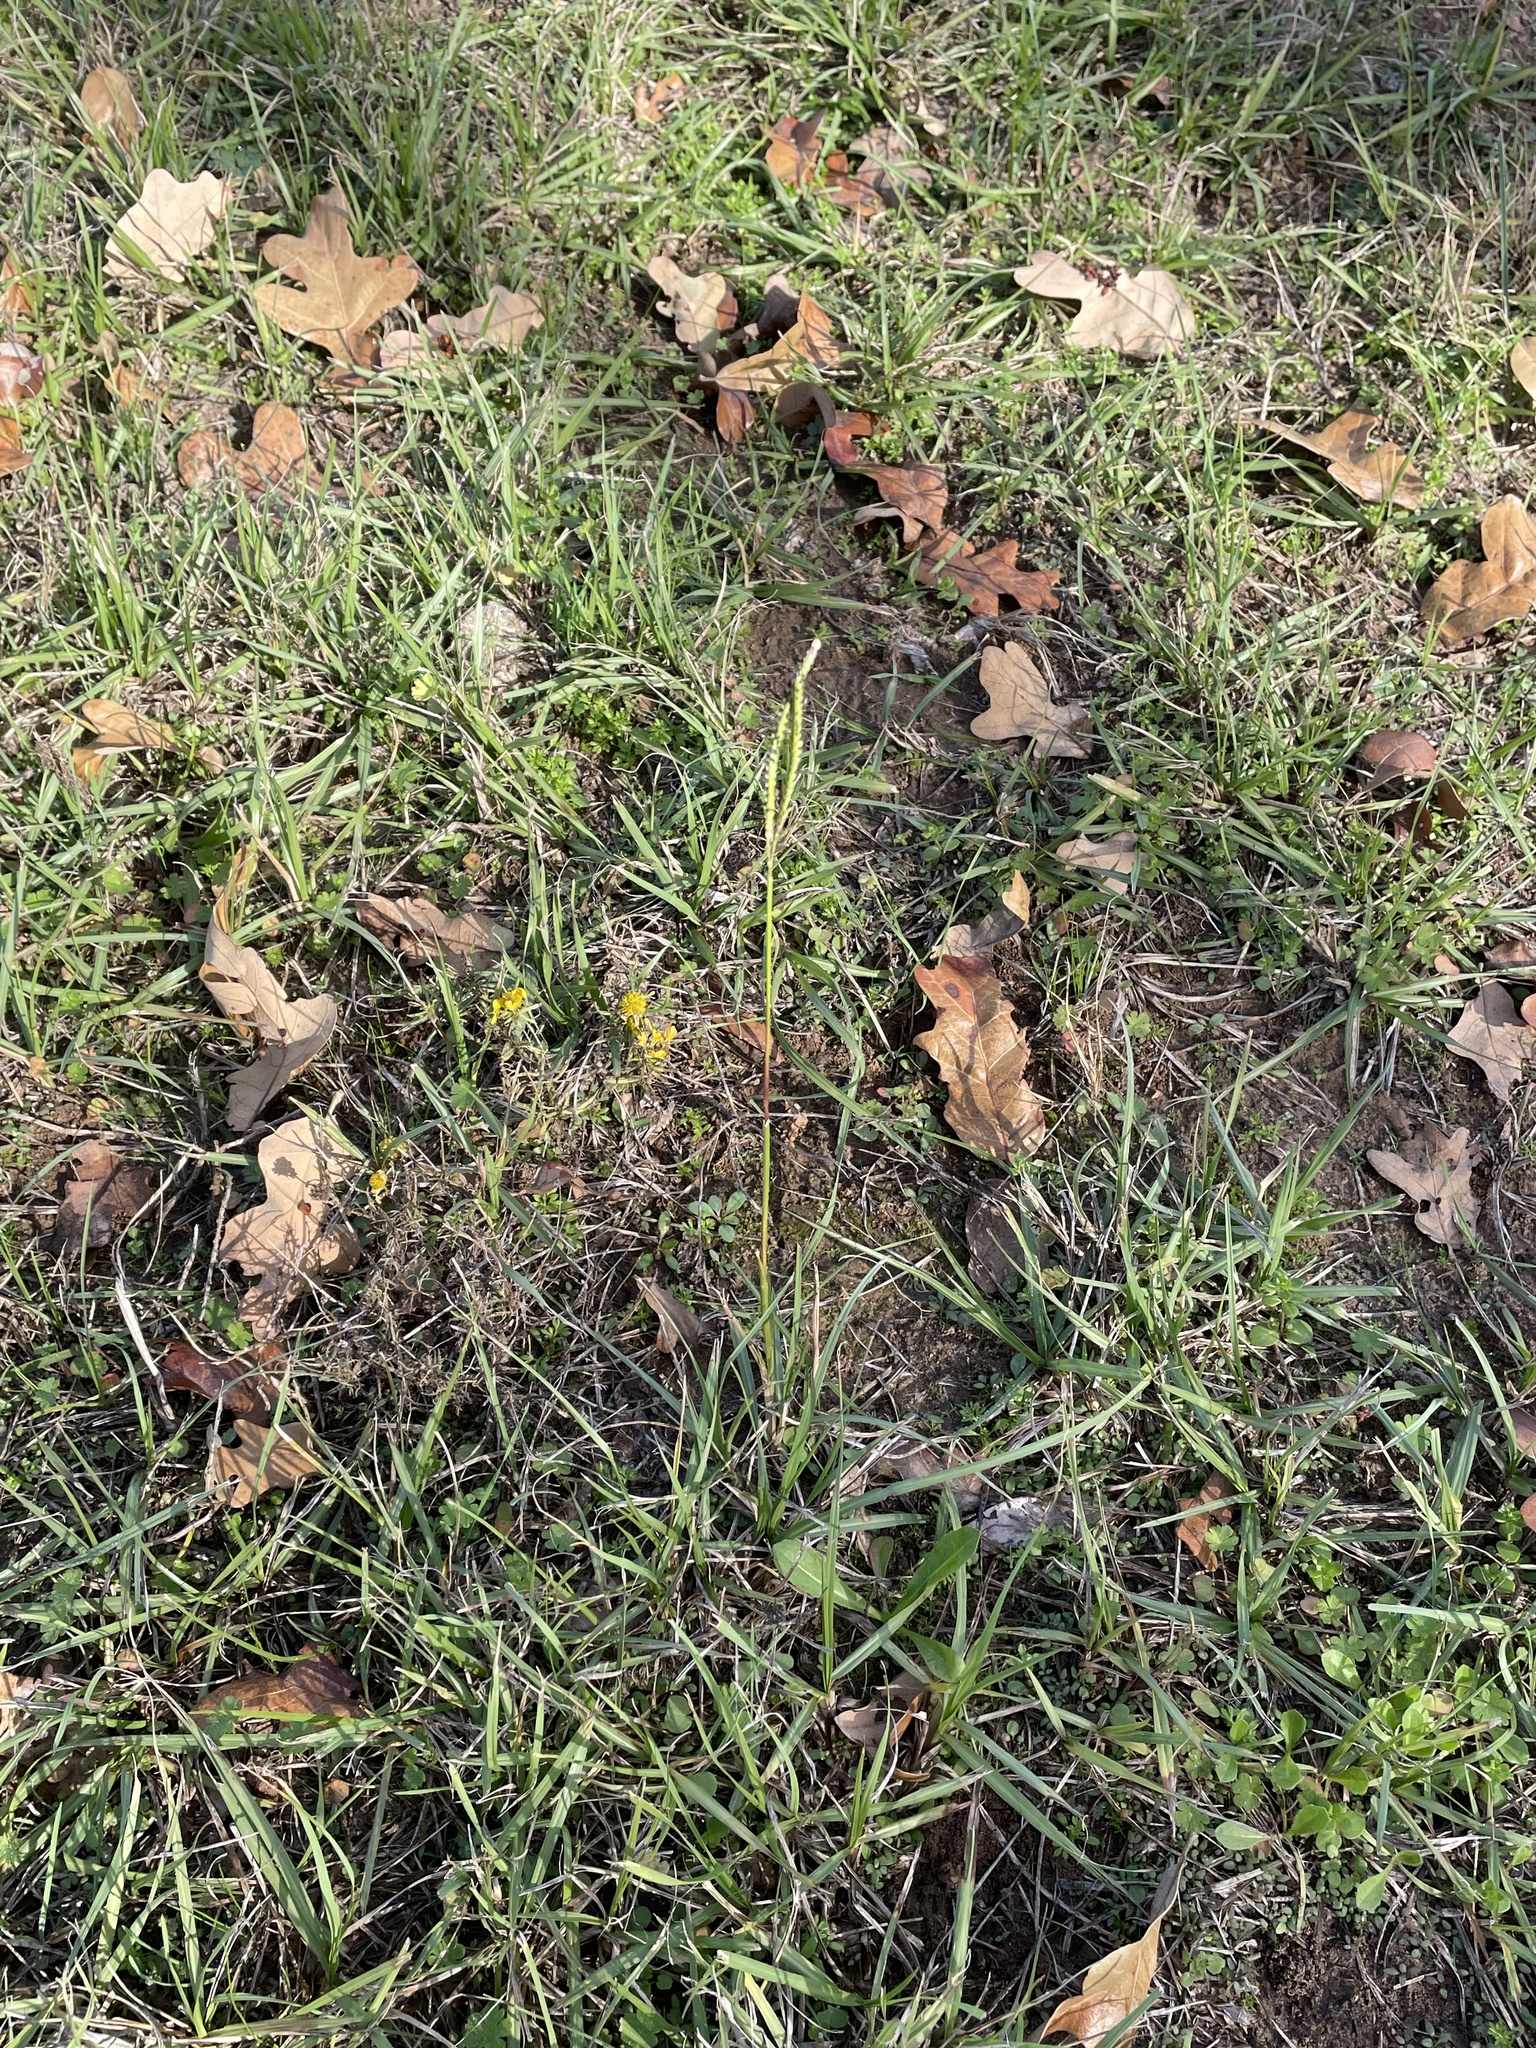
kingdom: Plantae
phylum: Tracheophyta
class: Liliopsida
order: Poales
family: Poaceae
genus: Paspalum
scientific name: Paspalum notatum
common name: Bahiagrass
